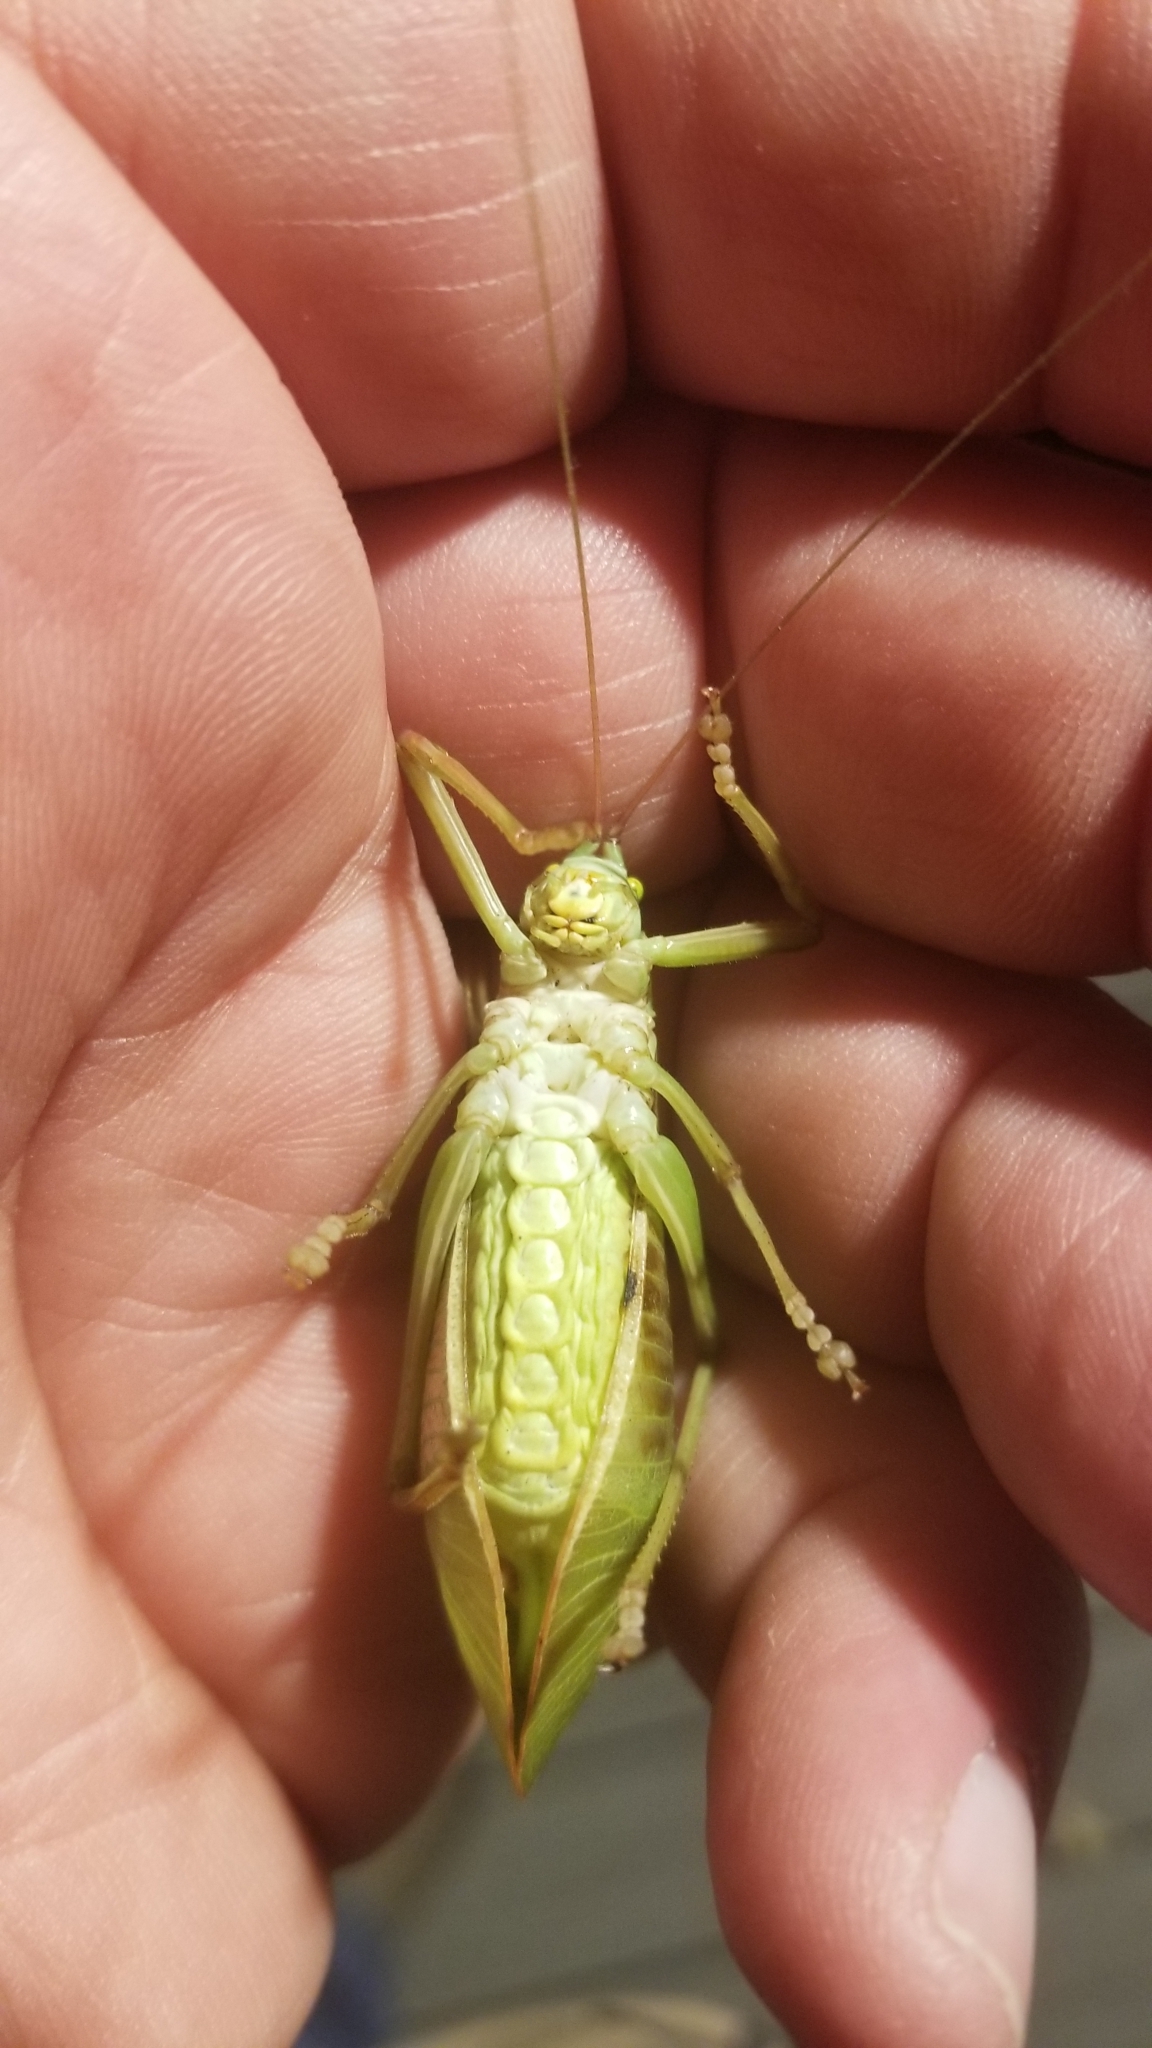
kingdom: Animalia
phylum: Arthropoda
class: Insecta
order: Orthoptera
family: Tettigoniidae
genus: Pterophylla
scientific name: Pterophylla camellifolia
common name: Common true katydid
